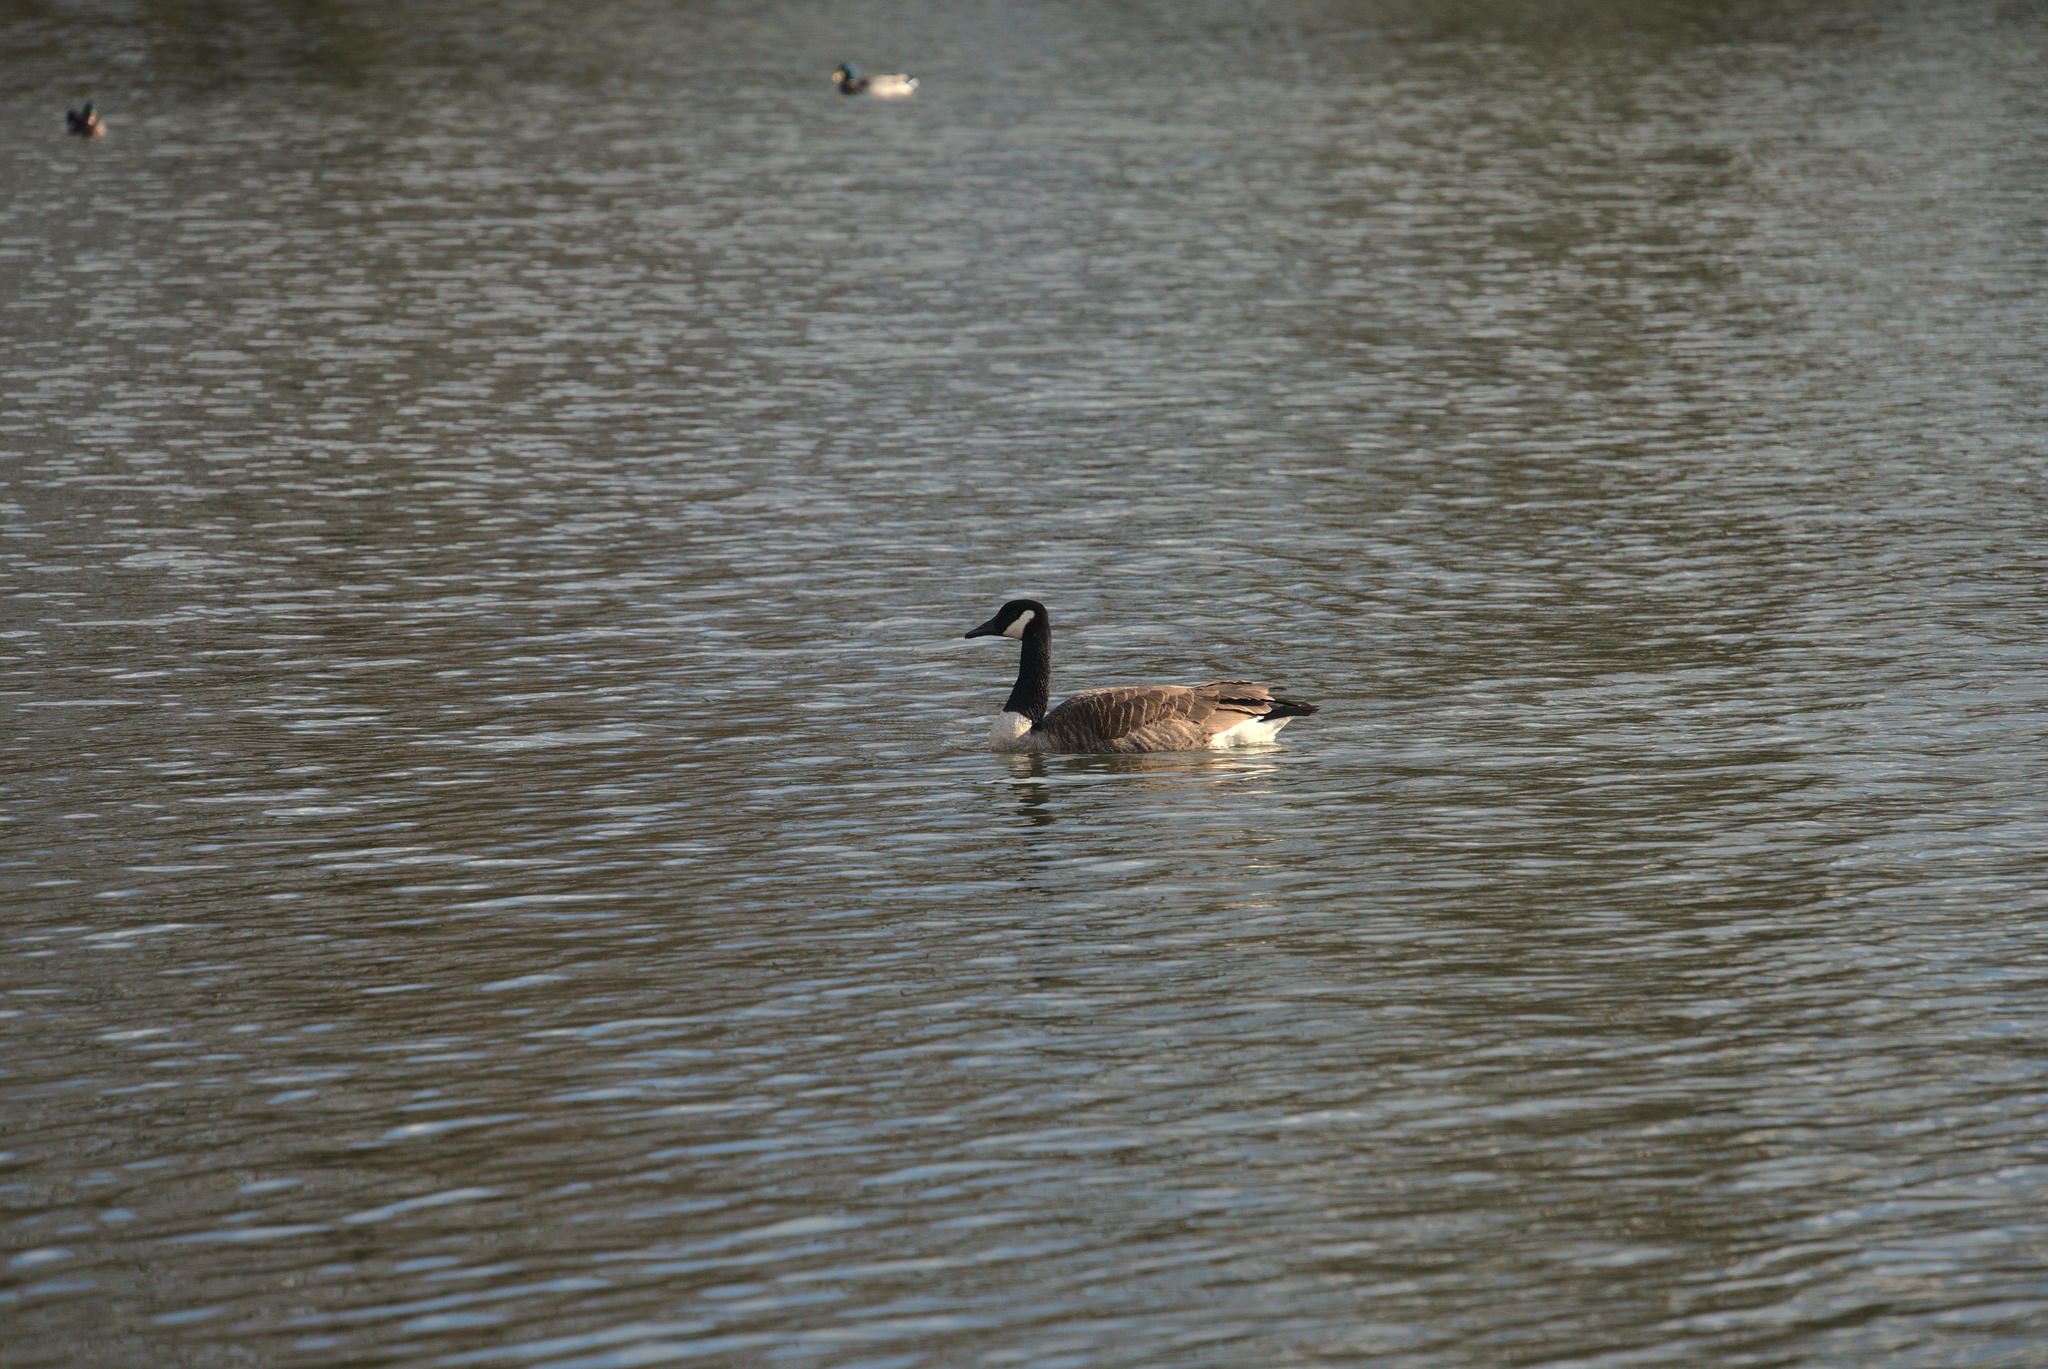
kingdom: Animalia
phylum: Chordata
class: Aves
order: Anseriformes
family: Anatidae
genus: Branta
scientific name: Branta canadensis
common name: Canada goose
